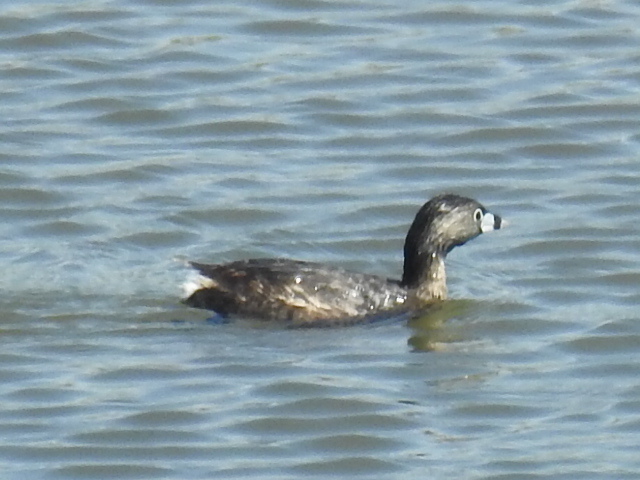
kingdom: Animalia
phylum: Chordata
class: Aves
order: Podicipediformes
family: Podicipedidae
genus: Podilymbus
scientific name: Podilymbus podiceps
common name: Pied-billed grebe
